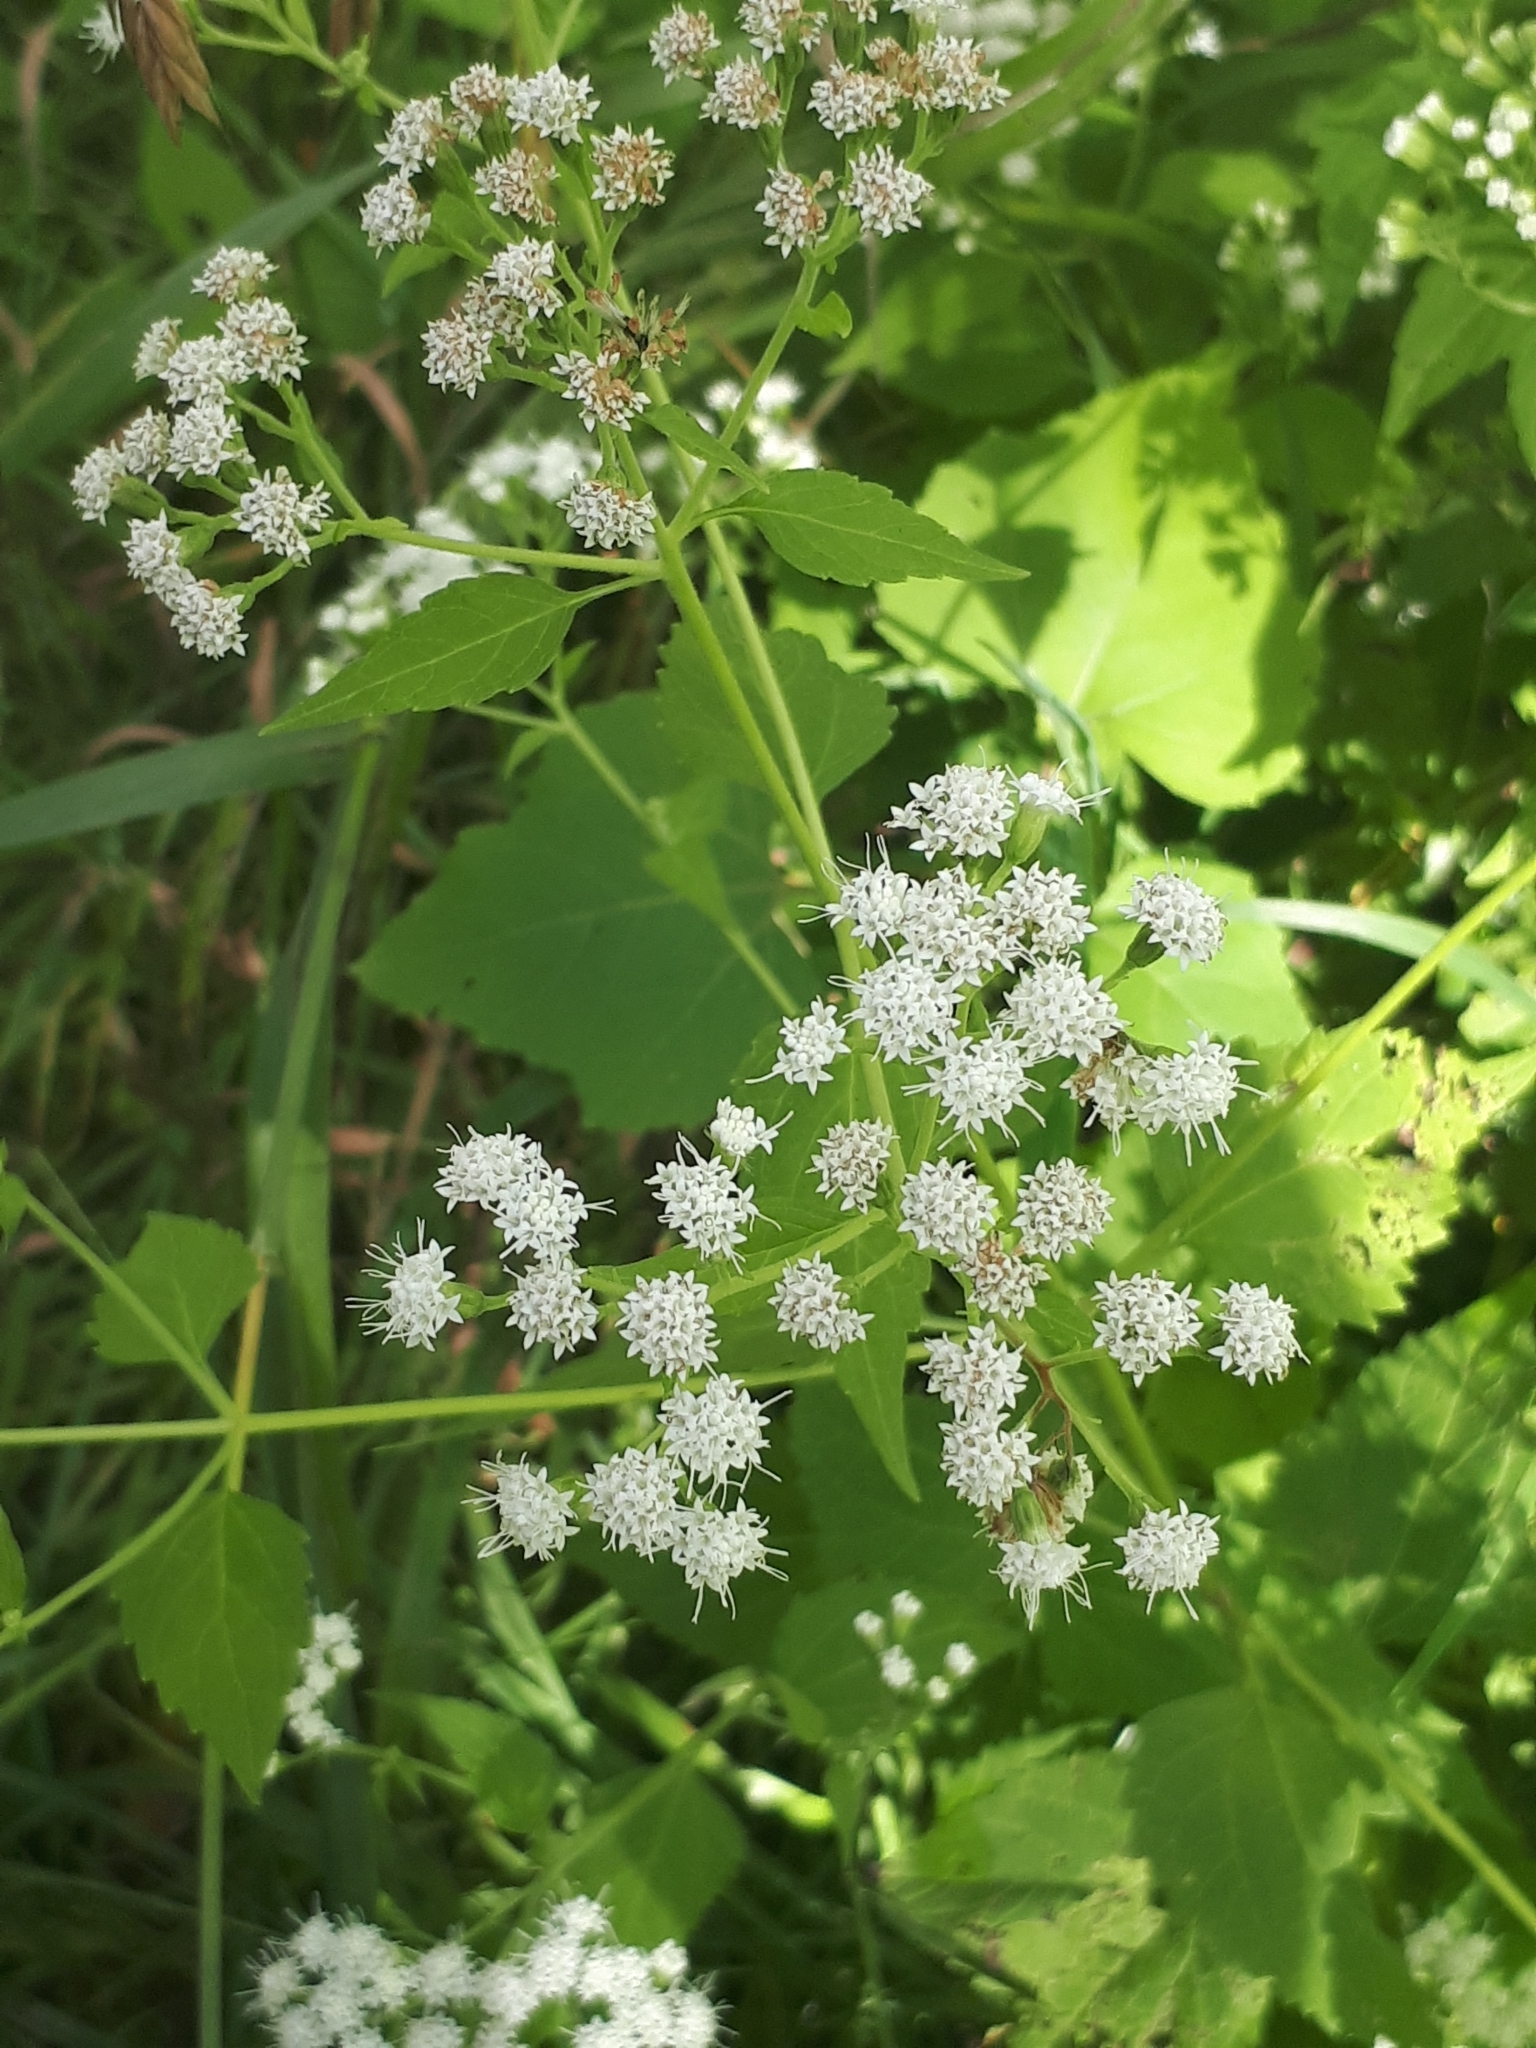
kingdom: Plantae
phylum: Tracheophyta
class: Magnoliopsida
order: Asterales
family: Asteraceae
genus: Ageratina
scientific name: Ageratina altissima
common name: White snakeroot
